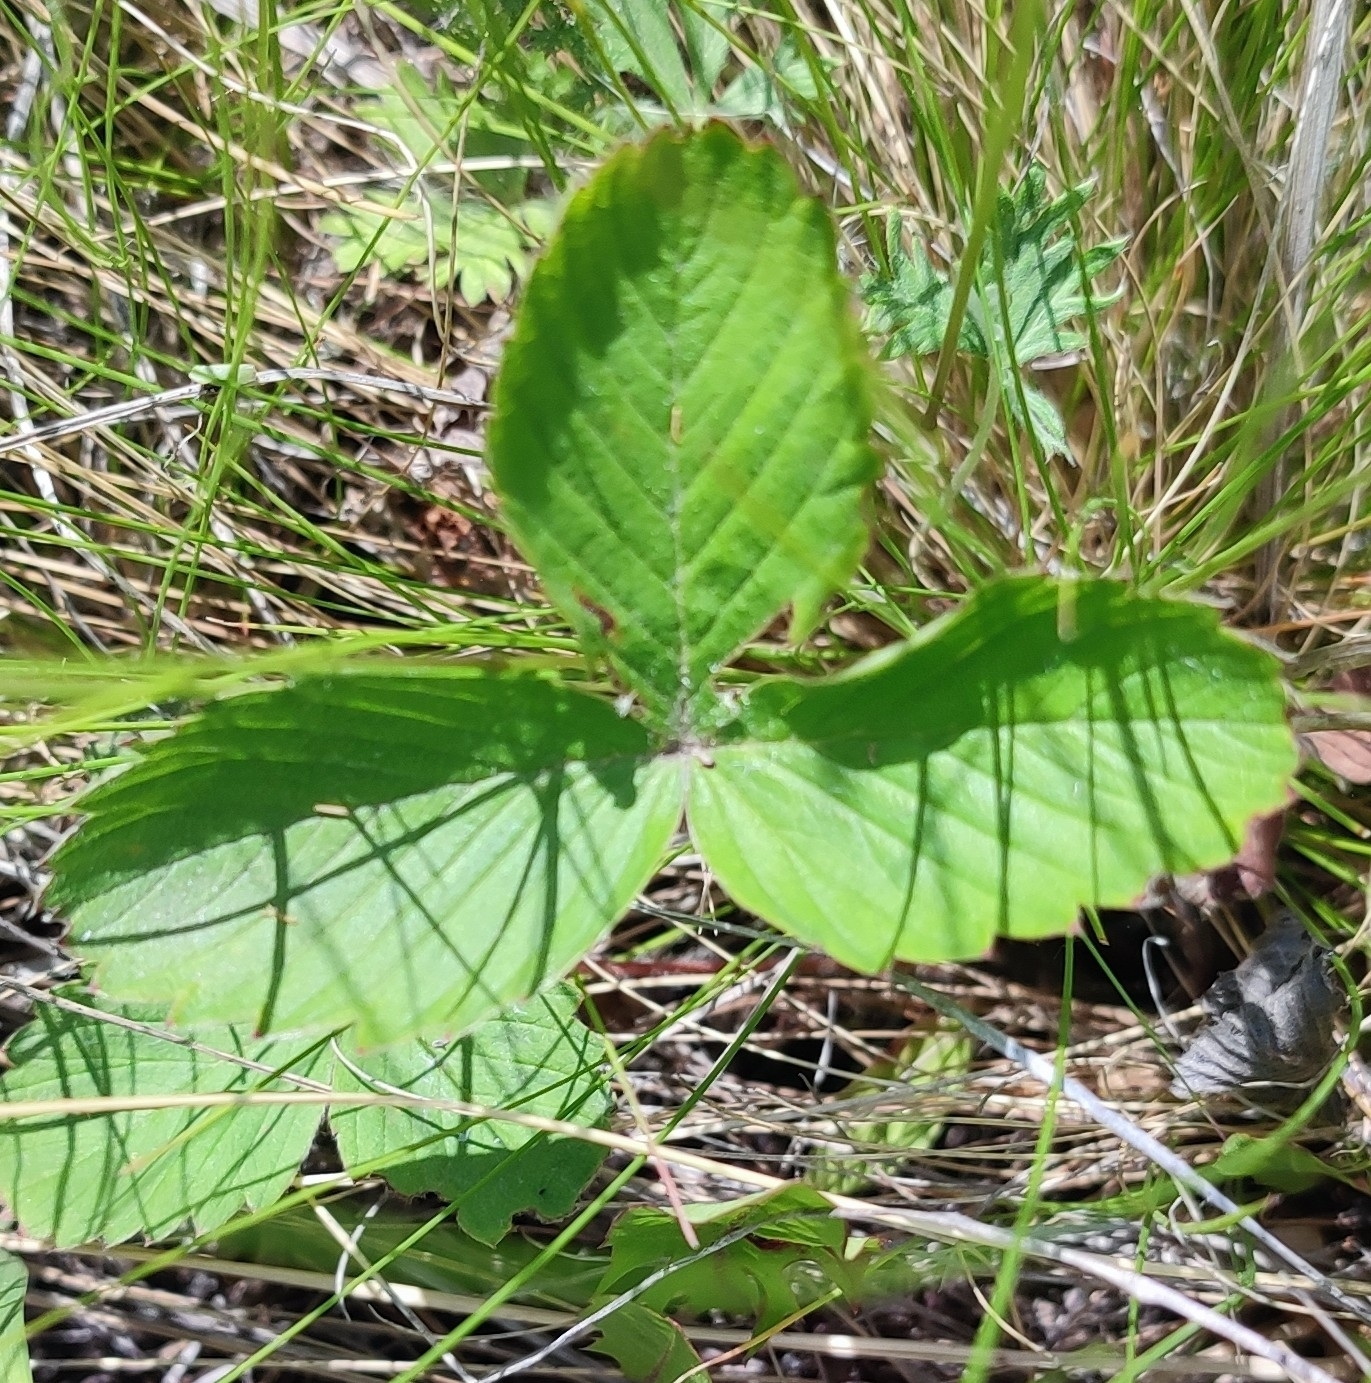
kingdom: Plantae
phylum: Tracheophyta
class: Magnoliopsida
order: Rosales
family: Rosaceae
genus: Fragaria
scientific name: Fragaria viridis
